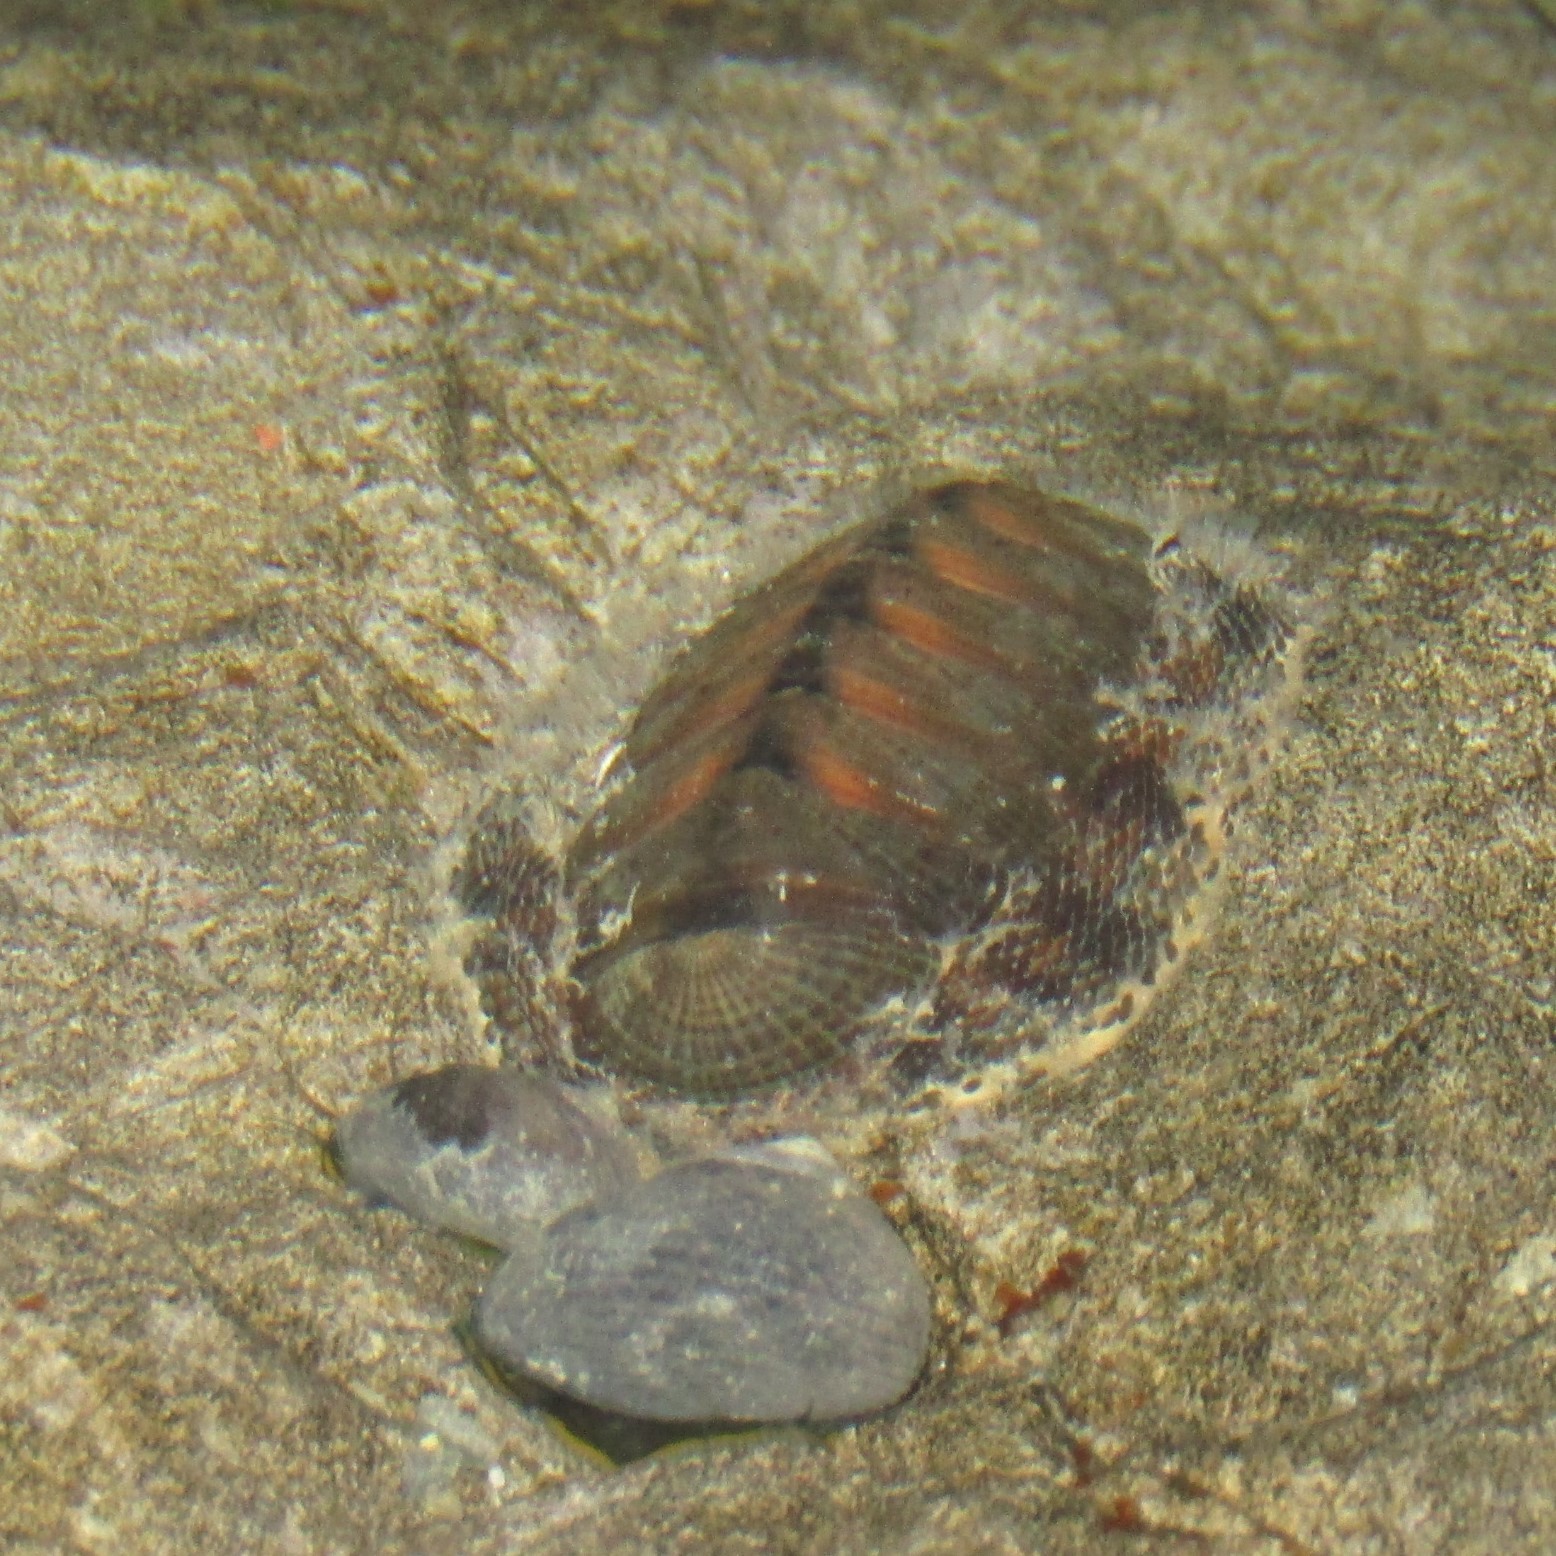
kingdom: Animalia
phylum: Mollusca
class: Polyplacophora
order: Chitonida
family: Chitonidae
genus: Sypharochiton
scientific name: Sypharochiton pelliserpentis
